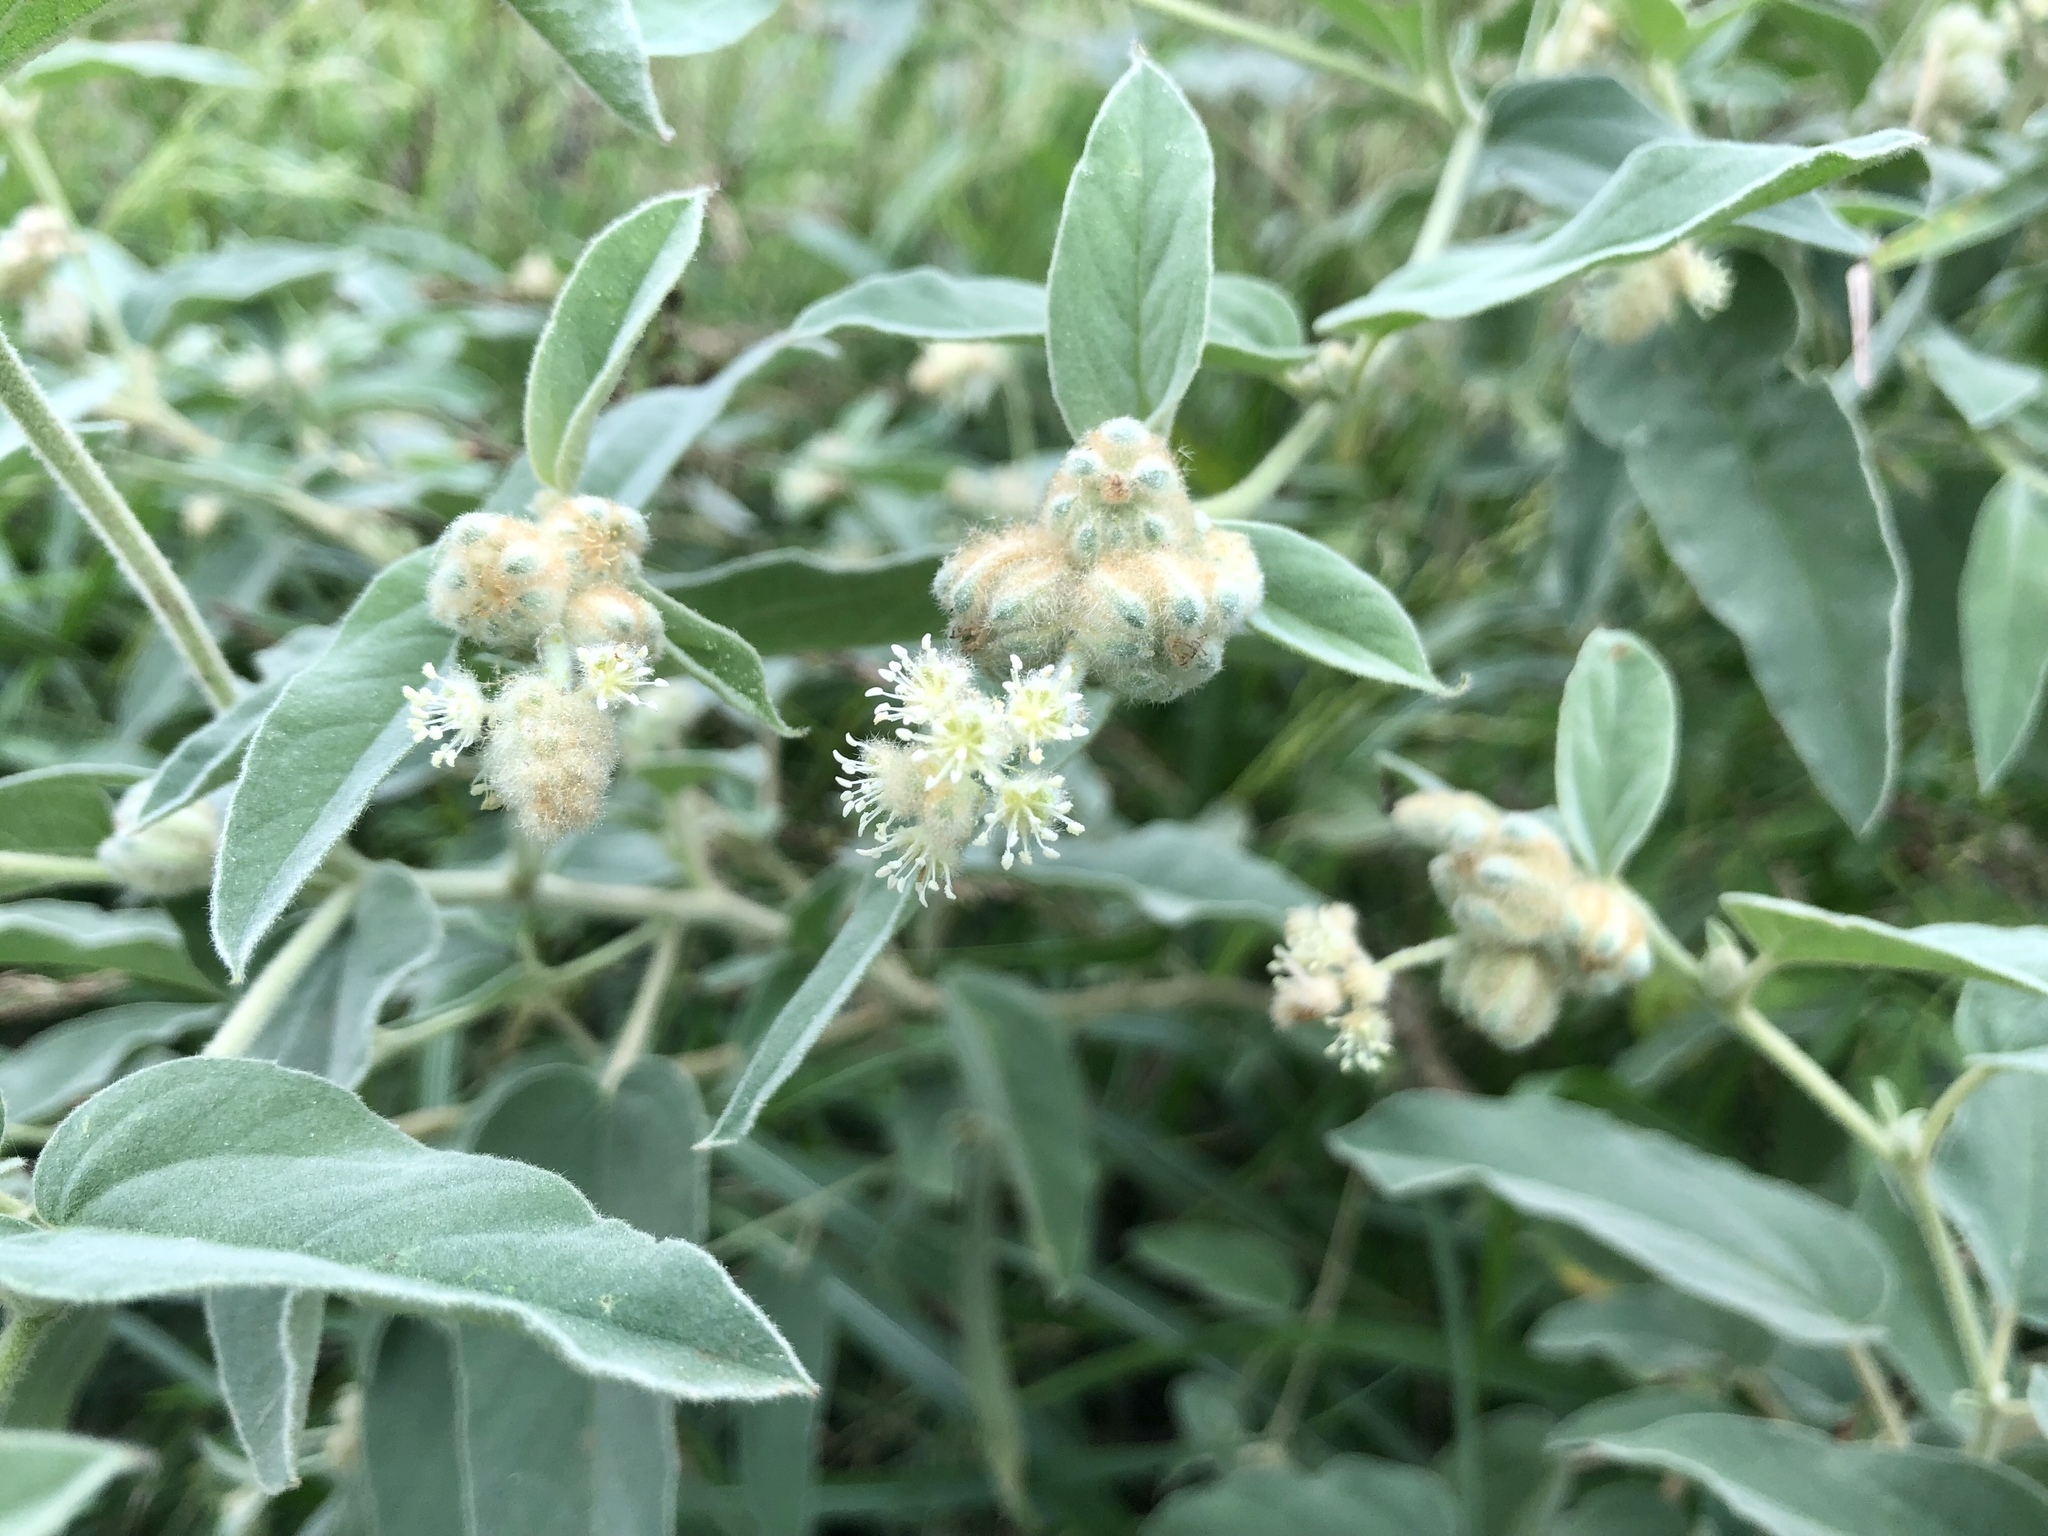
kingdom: Plantae
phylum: Tracheophyta
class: Magnoliopsida
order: Malpighiales
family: Euphorbiaceae
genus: Croton
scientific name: Croton lindheimeri
